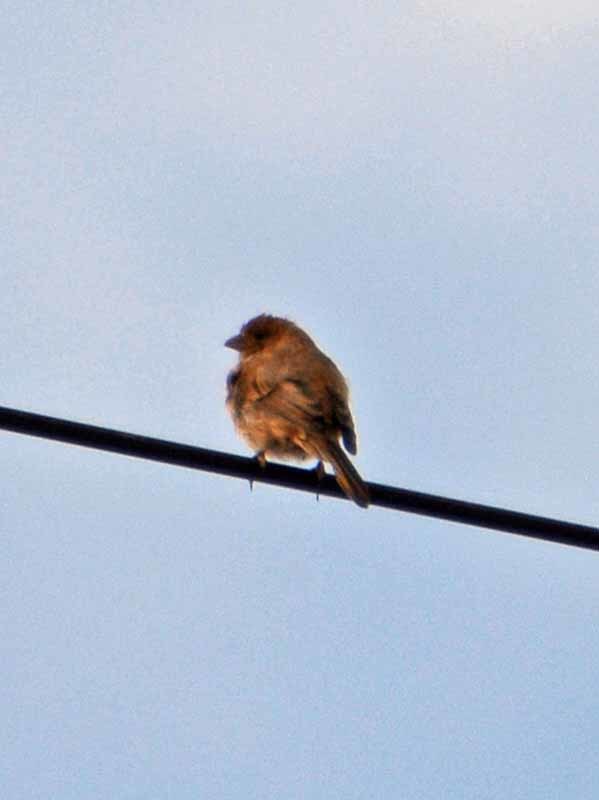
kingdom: Animalia
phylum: Chordata
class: Aves
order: Passeriformes
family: Fringillidae
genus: Haemorhous
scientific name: Haemorhous mexicanus
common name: House finch
